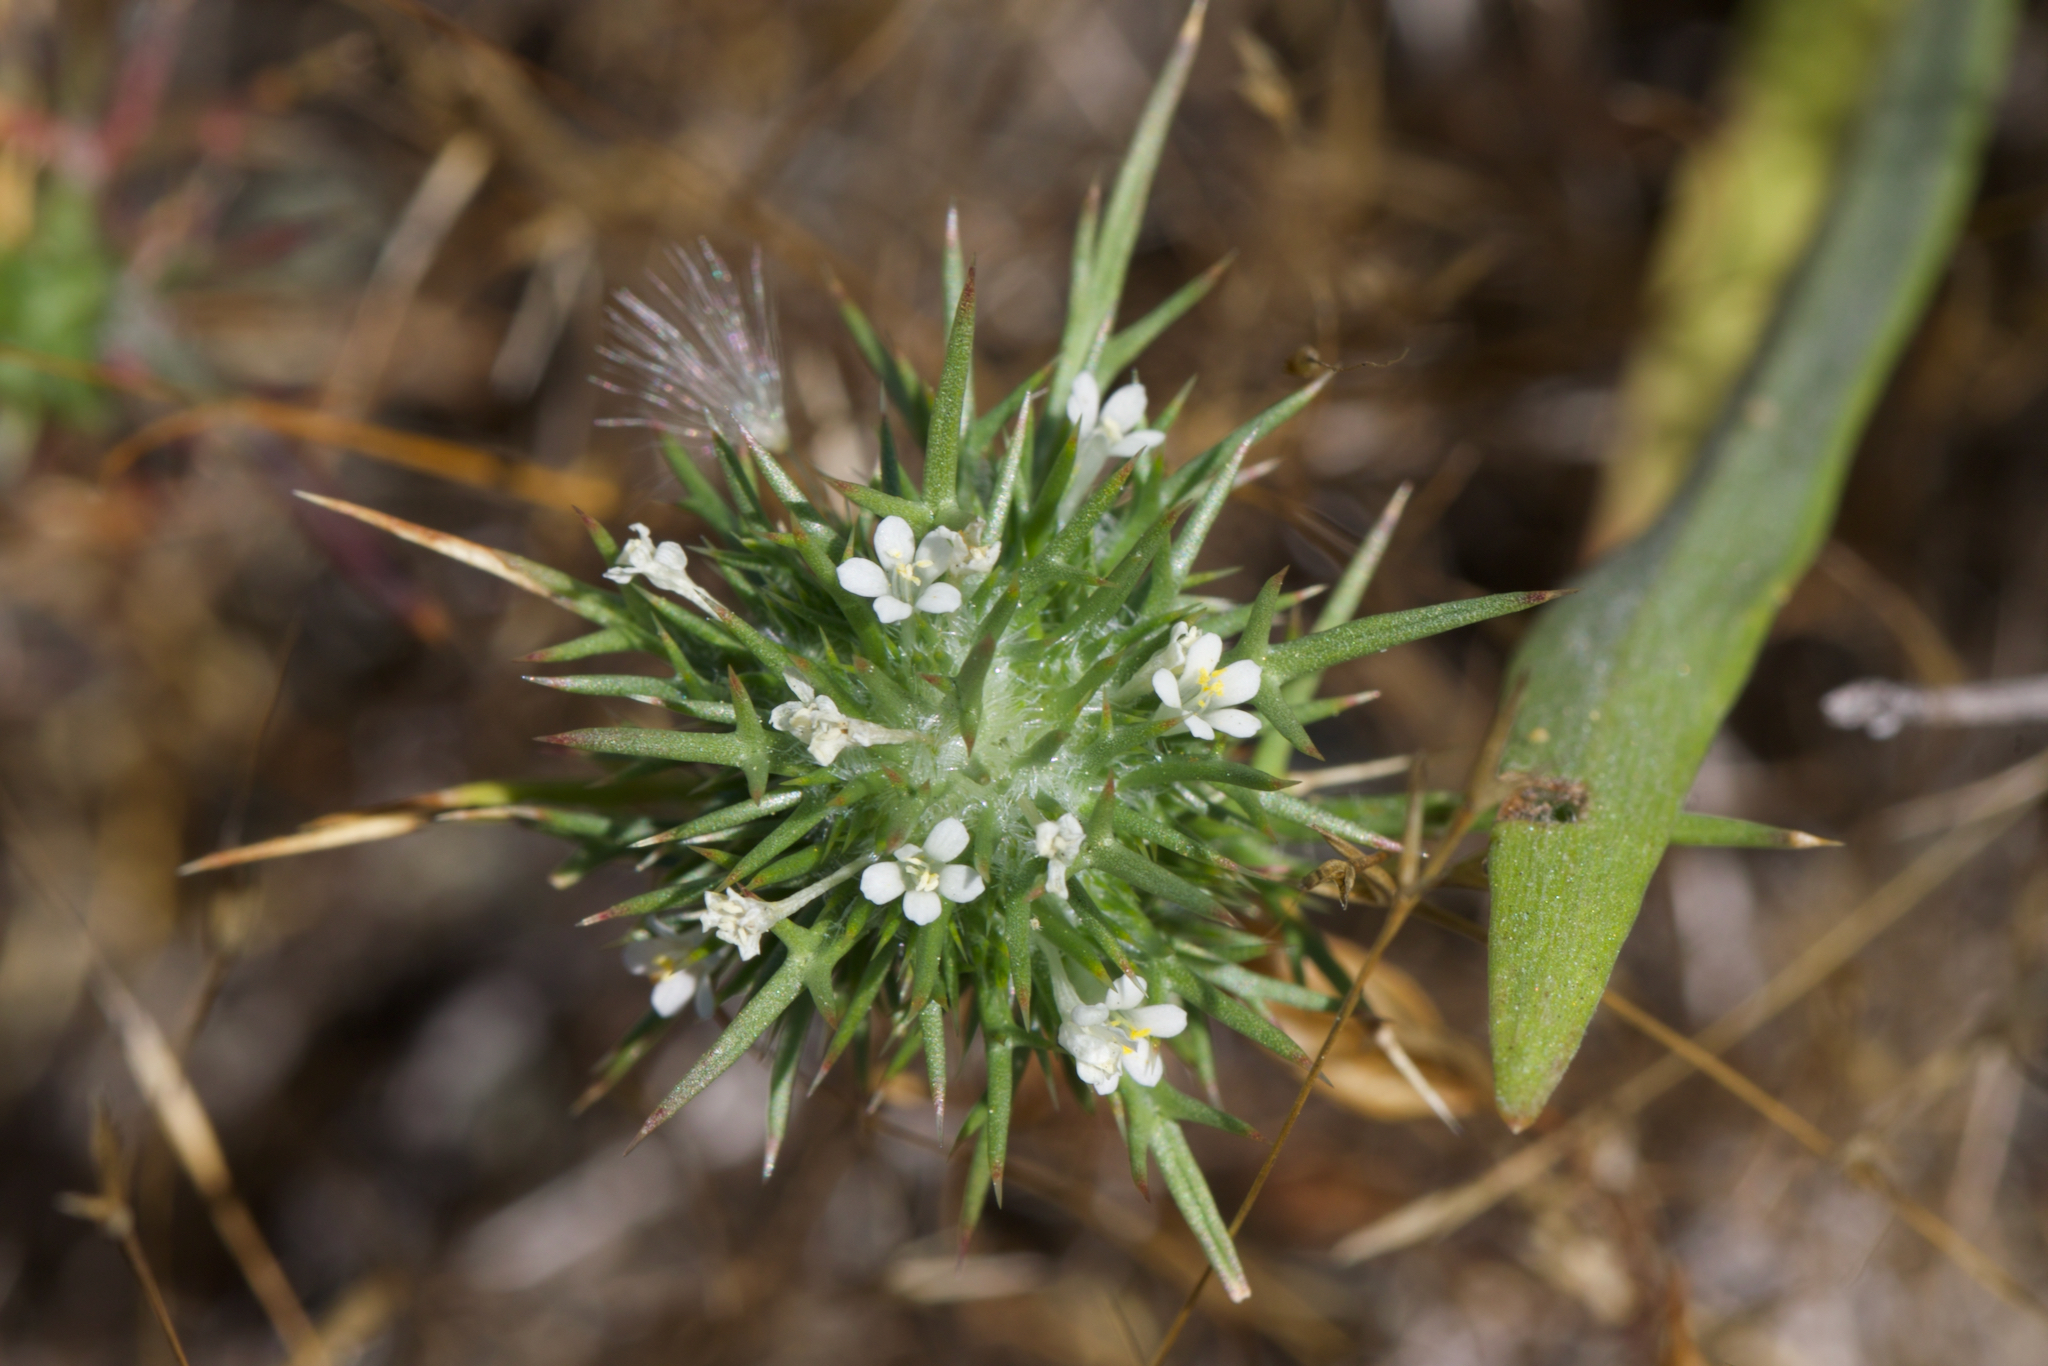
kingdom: Plantae
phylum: Tracheophyta
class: Magnoliopsida
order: Ericales
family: Polemoniaceae
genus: Navarretia
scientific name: Navarretia paradoxinota
